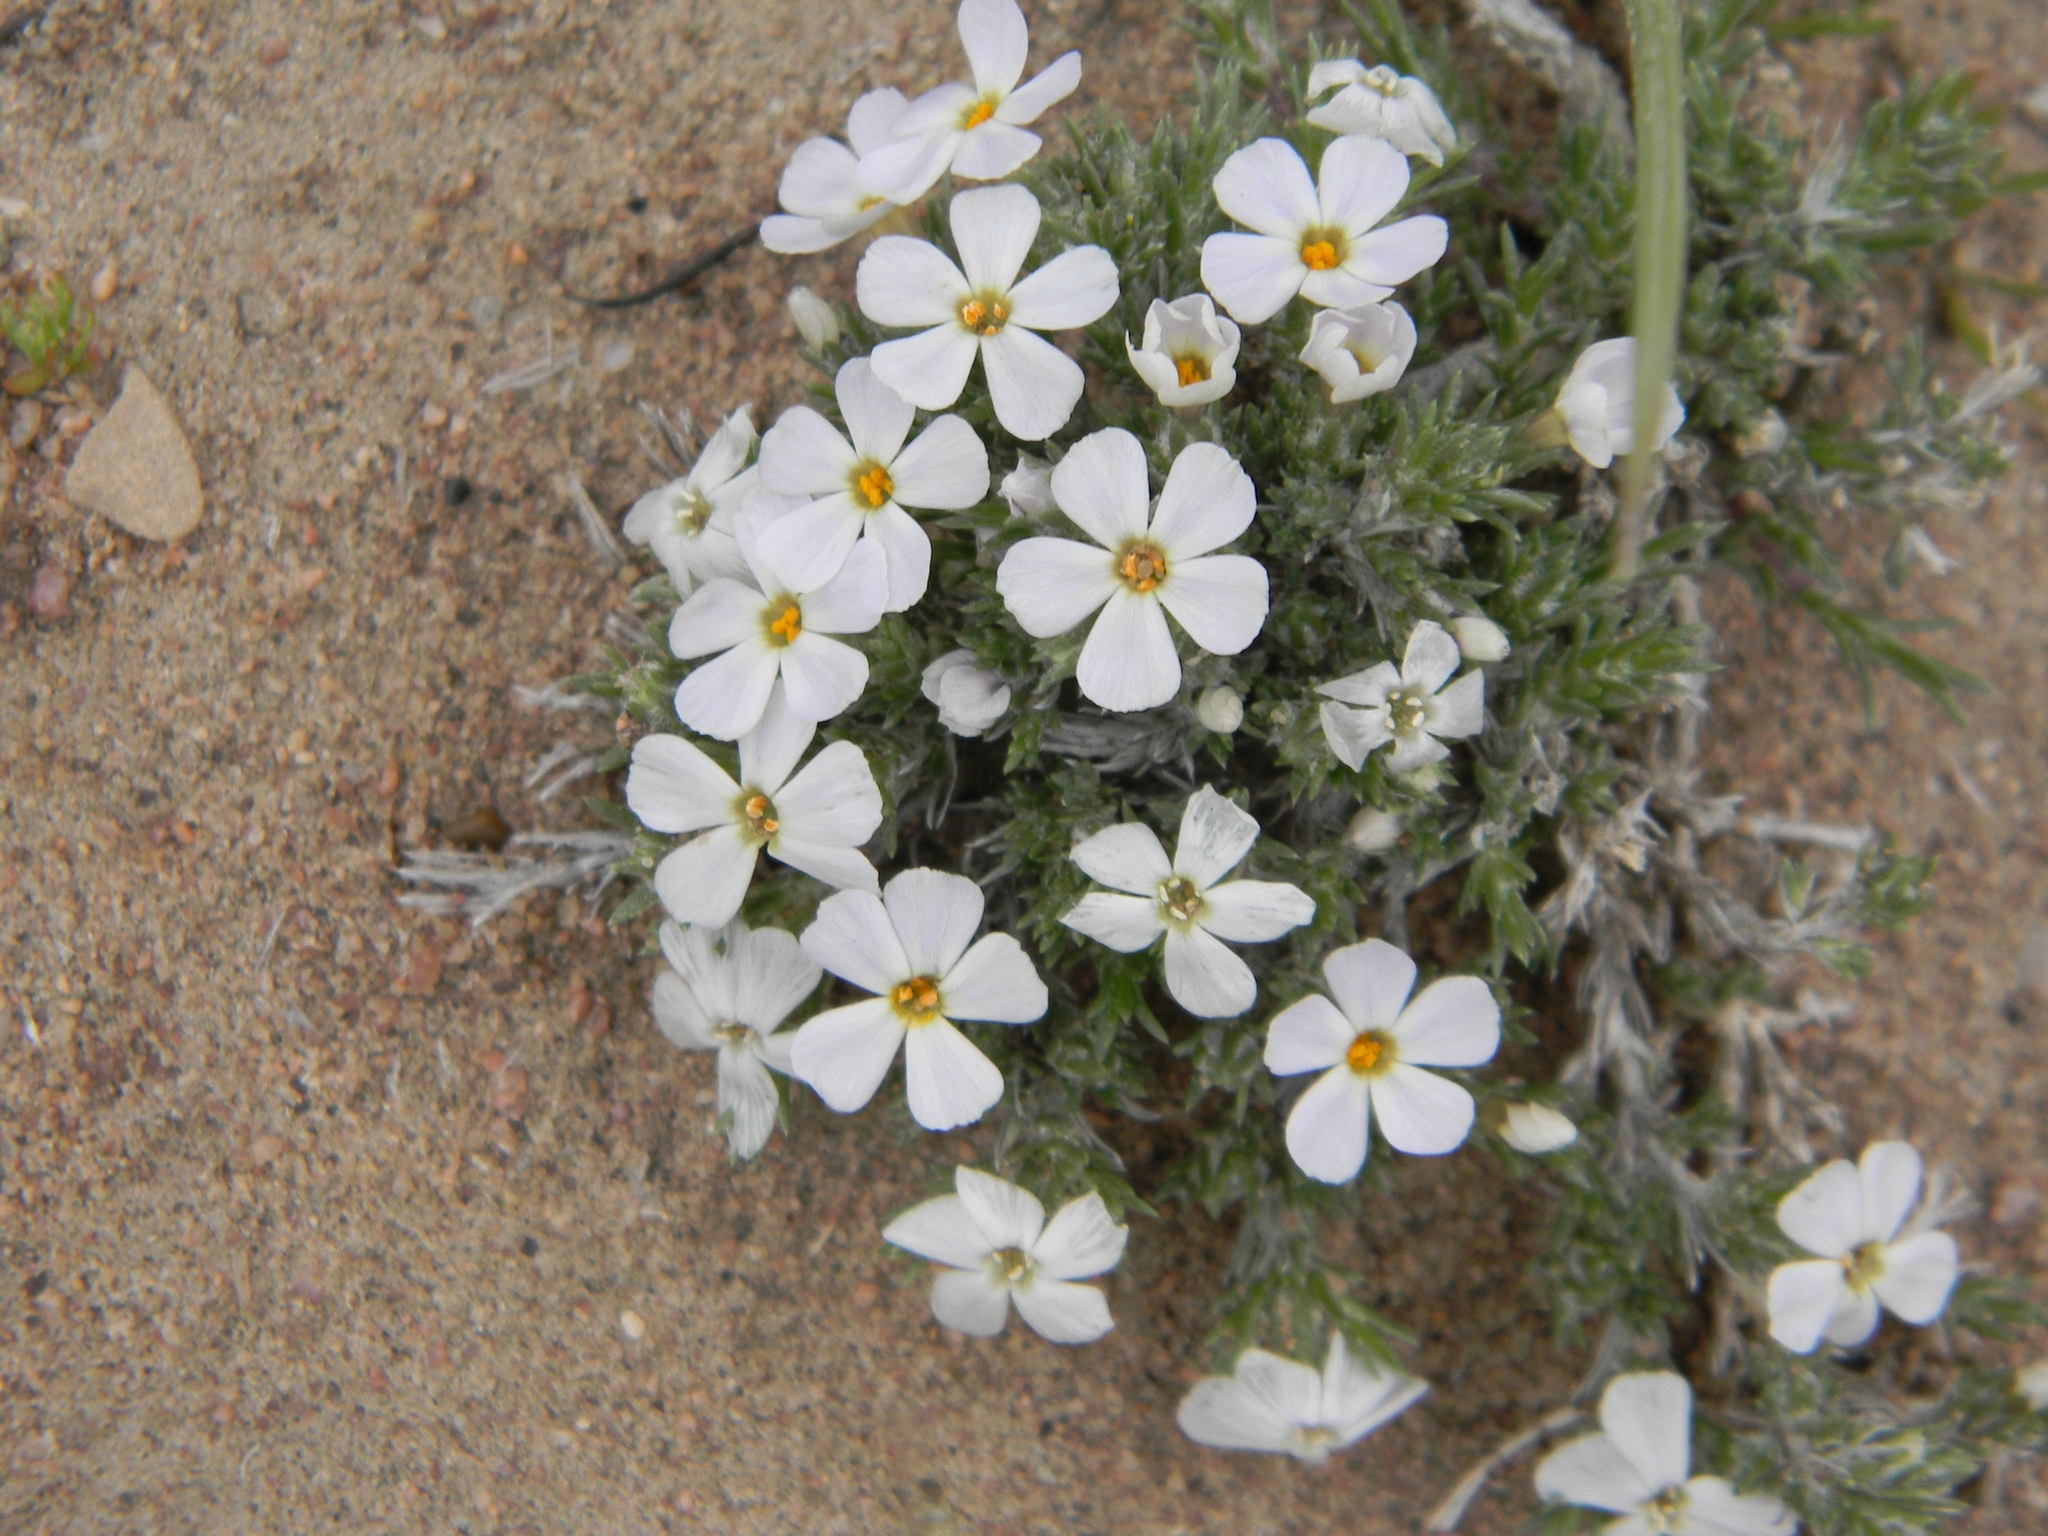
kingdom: Plantae
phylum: Tracheophyta
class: Magnoliopsida
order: Ericales
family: Polemoniaceae
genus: Phlox
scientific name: Phlox hoodii
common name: Moss phlox
